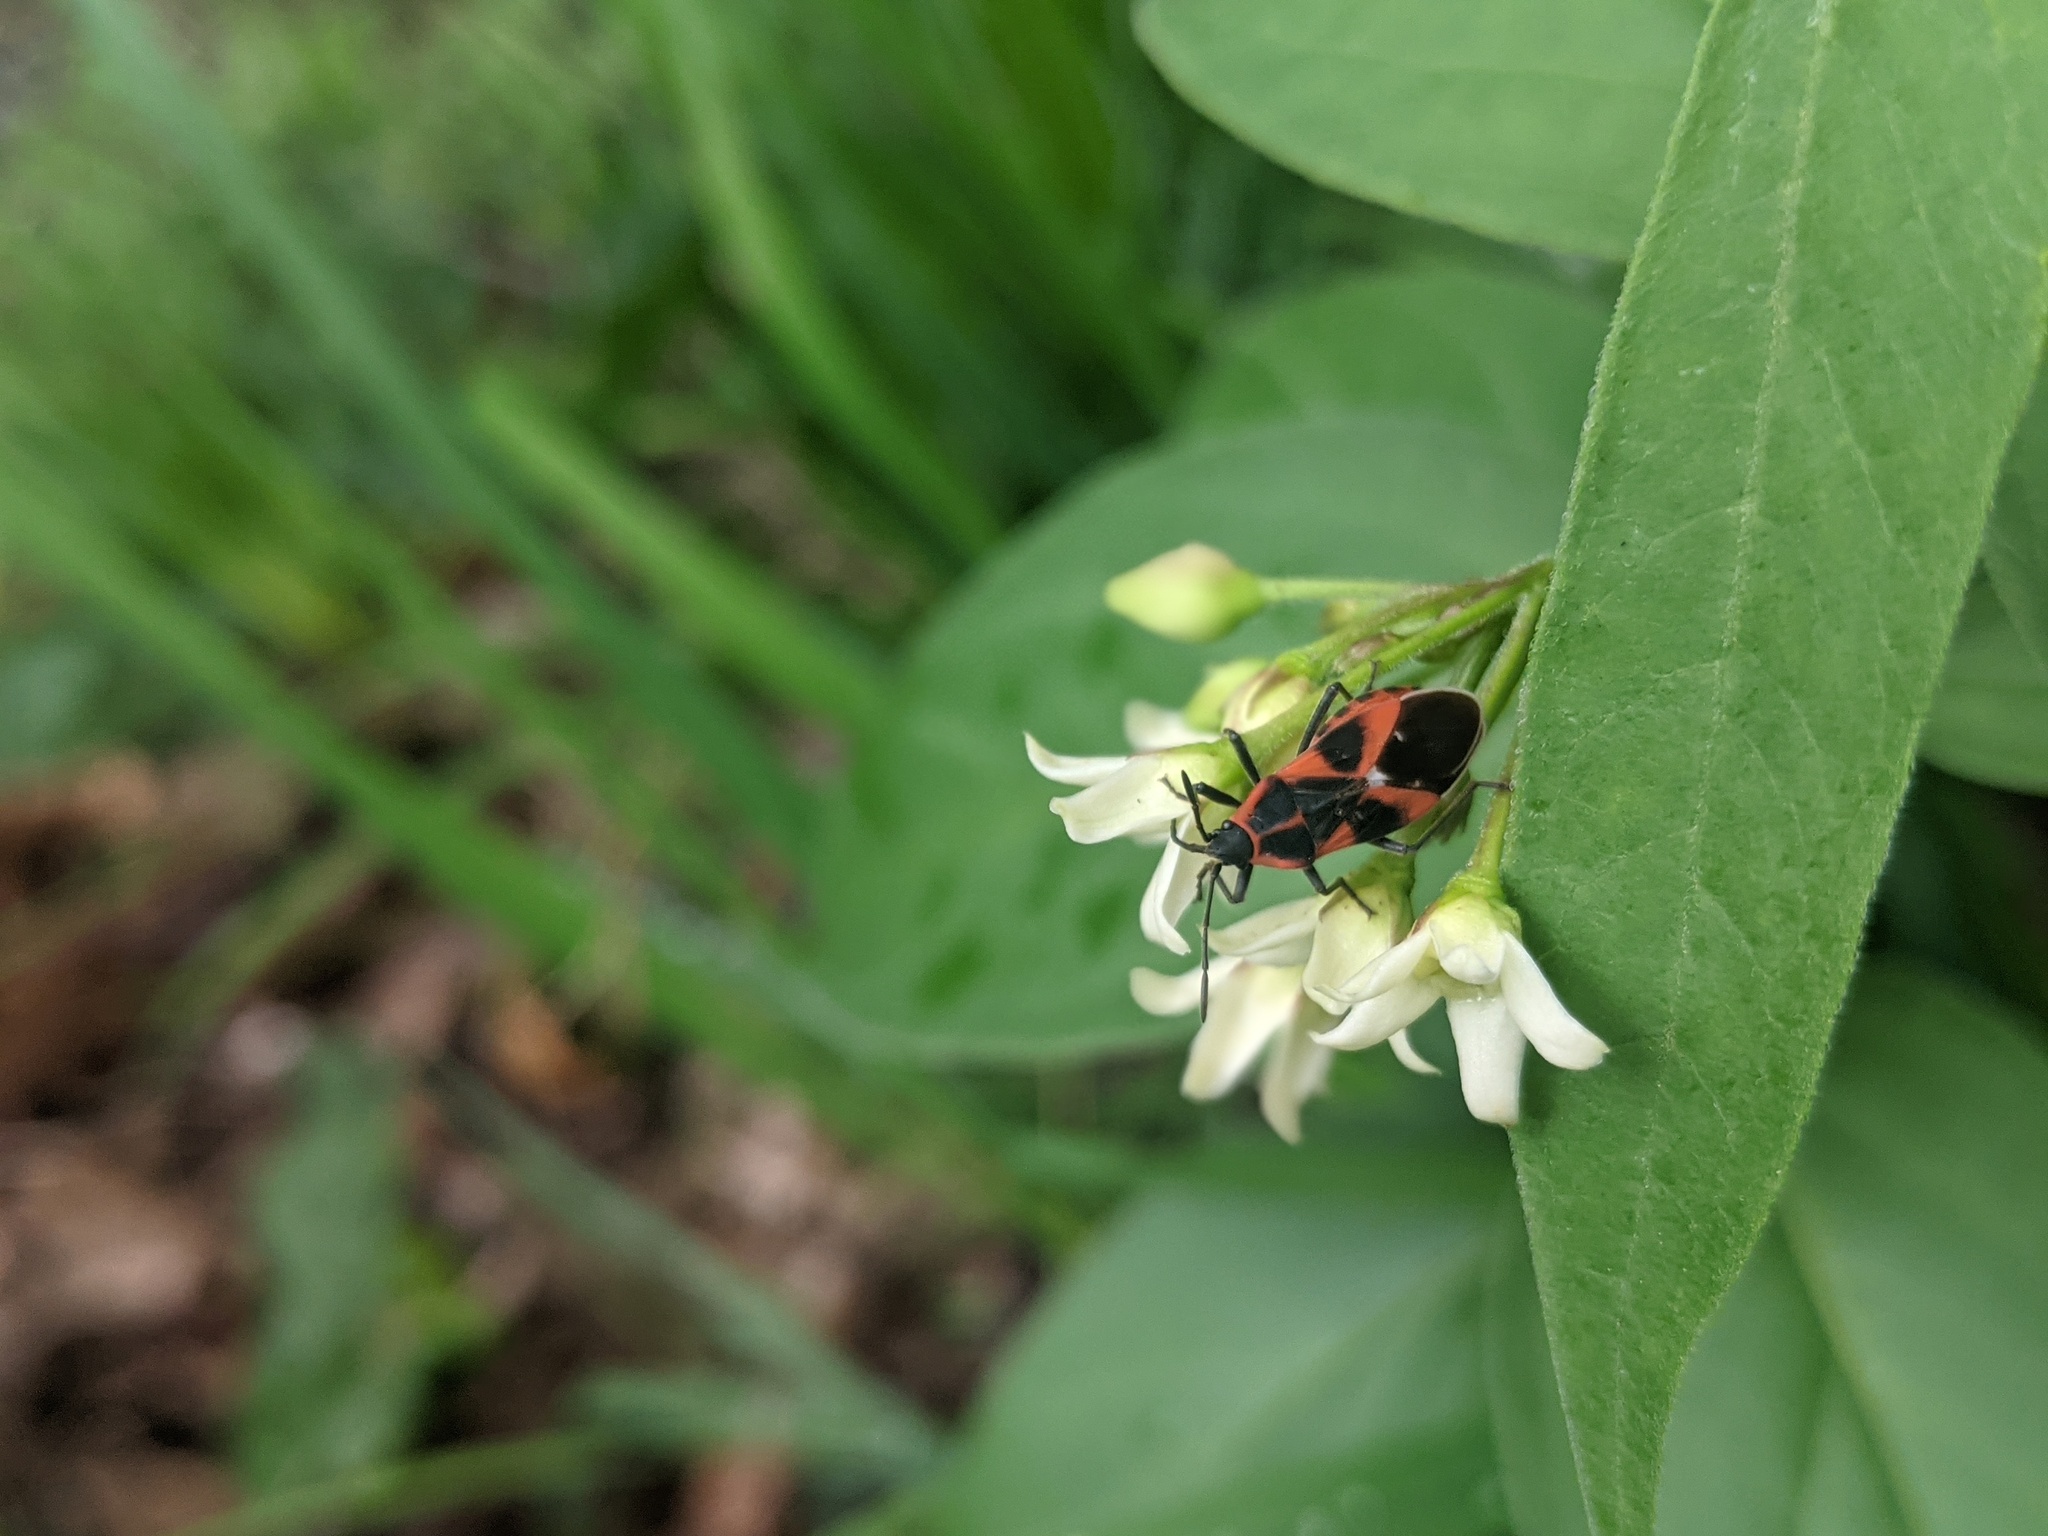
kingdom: Animalia
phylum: Arthropoda
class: Insecta
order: Hemiptera
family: Lygaeidae
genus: Tropidothorax
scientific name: Tropidothorax leucopterus
